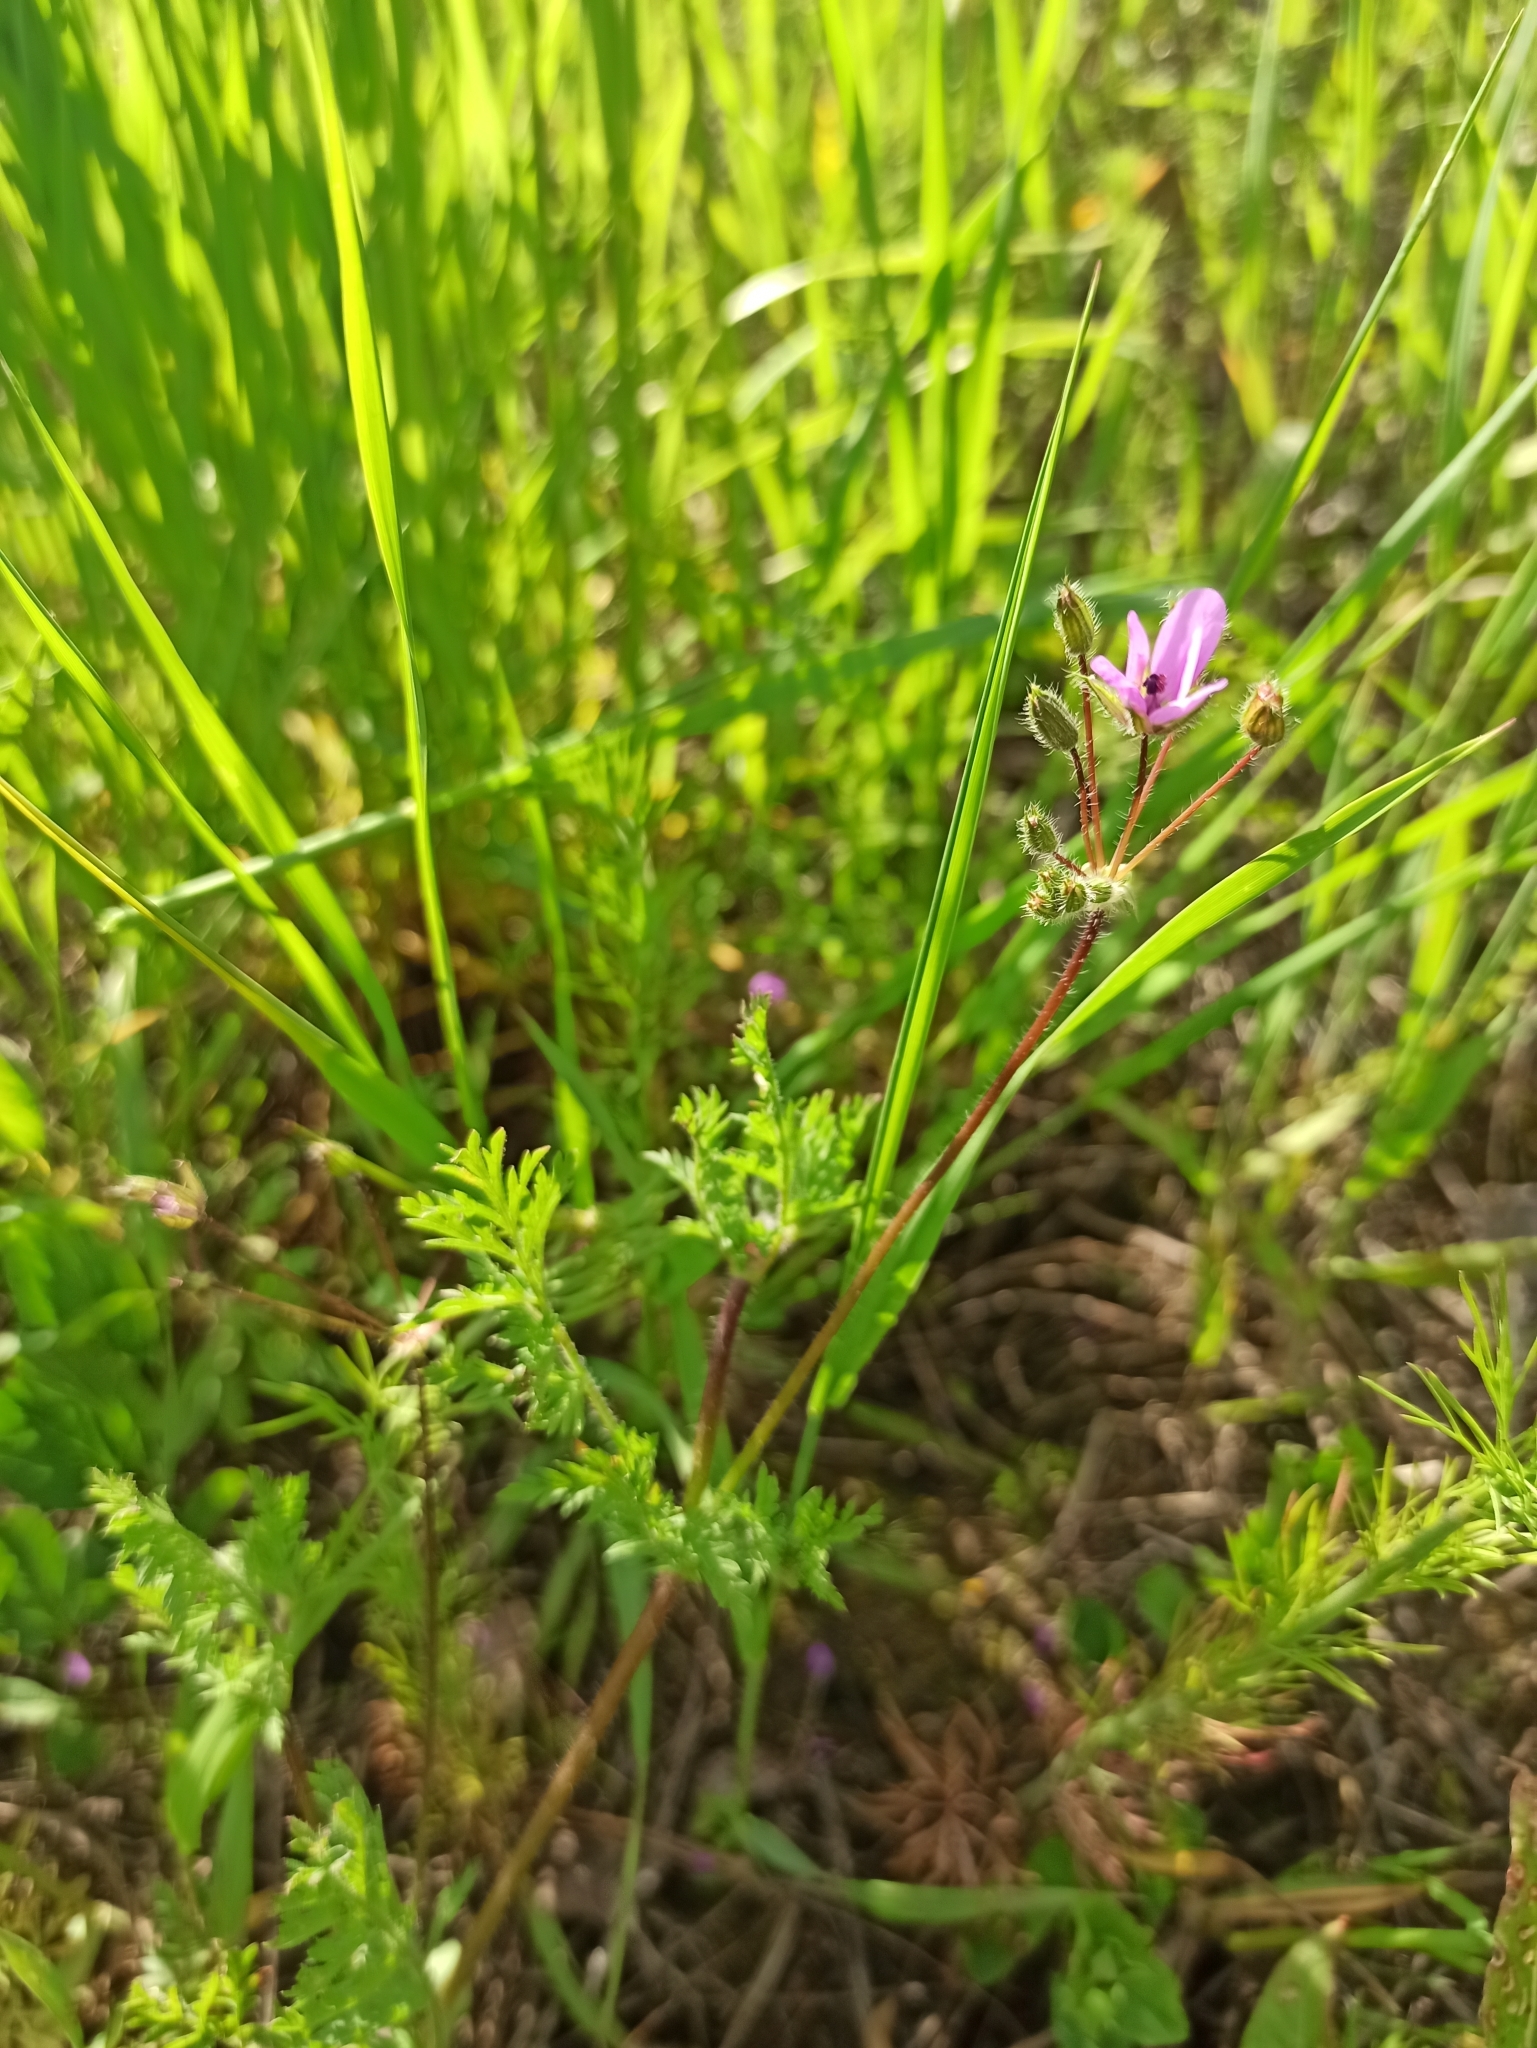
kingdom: Plantae
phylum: Tracheophyta
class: Magnoliopsida
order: Geraniales
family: Geraniaceae
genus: Erodium
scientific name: Erodium cicutarium
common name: Common stork's-bill
